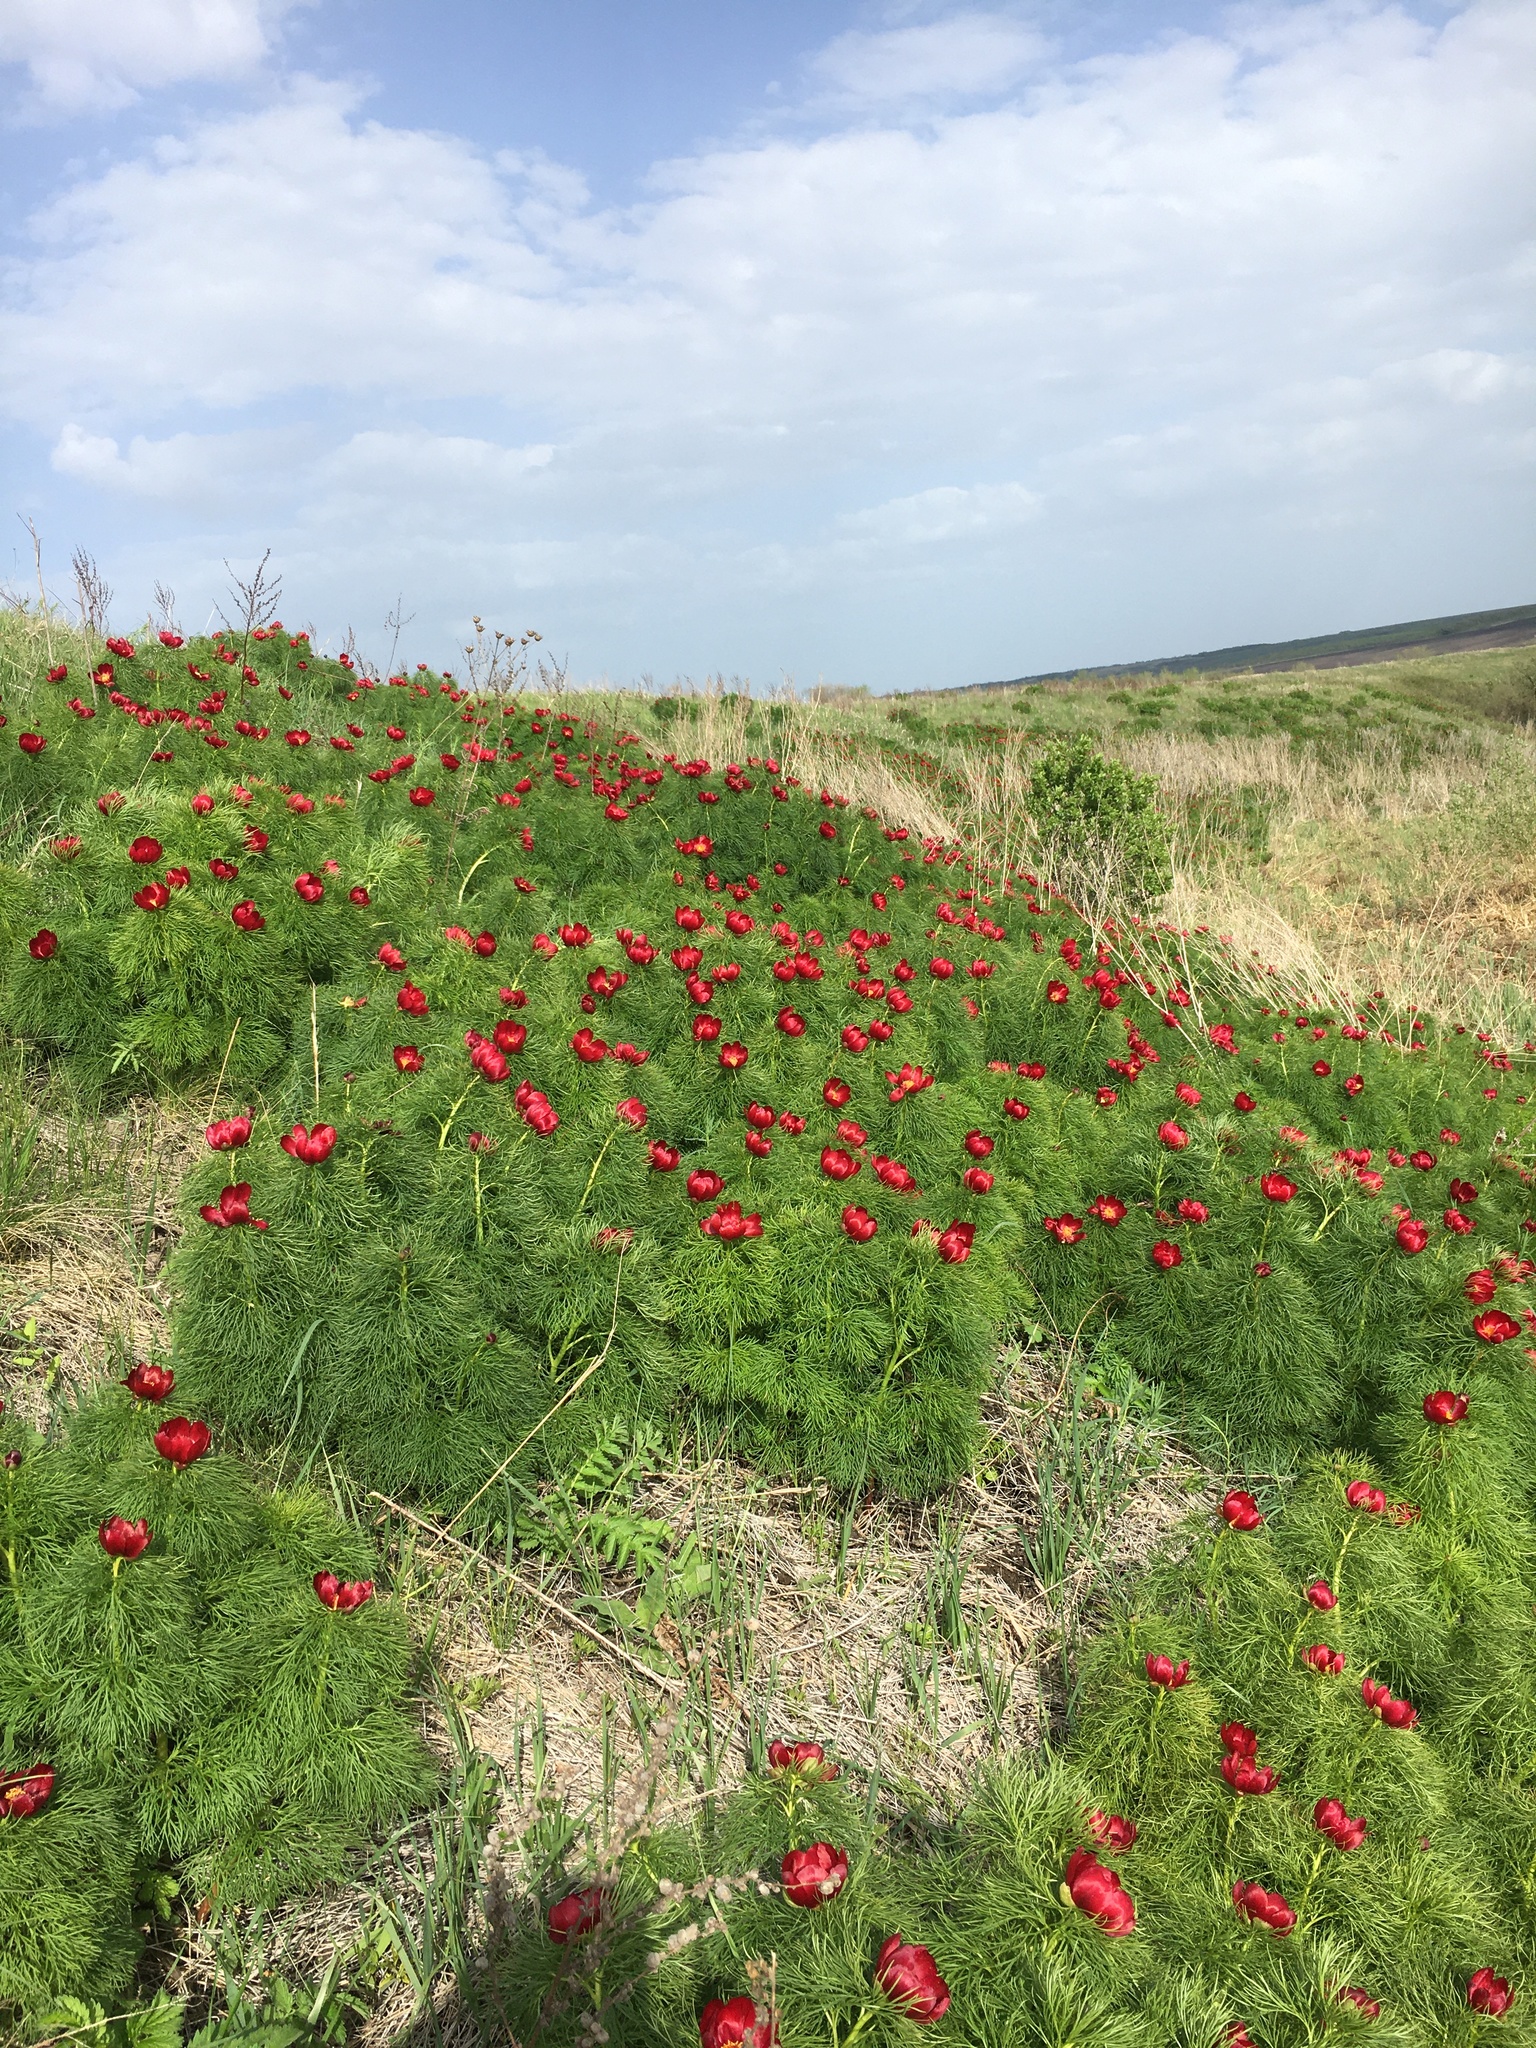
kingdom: Plantae
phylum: Tracheophyta
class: Magnoliopsida
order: Saxifragales
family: Paeoniaceae
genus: Paeonia
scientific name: Paeonia tenuifolia
